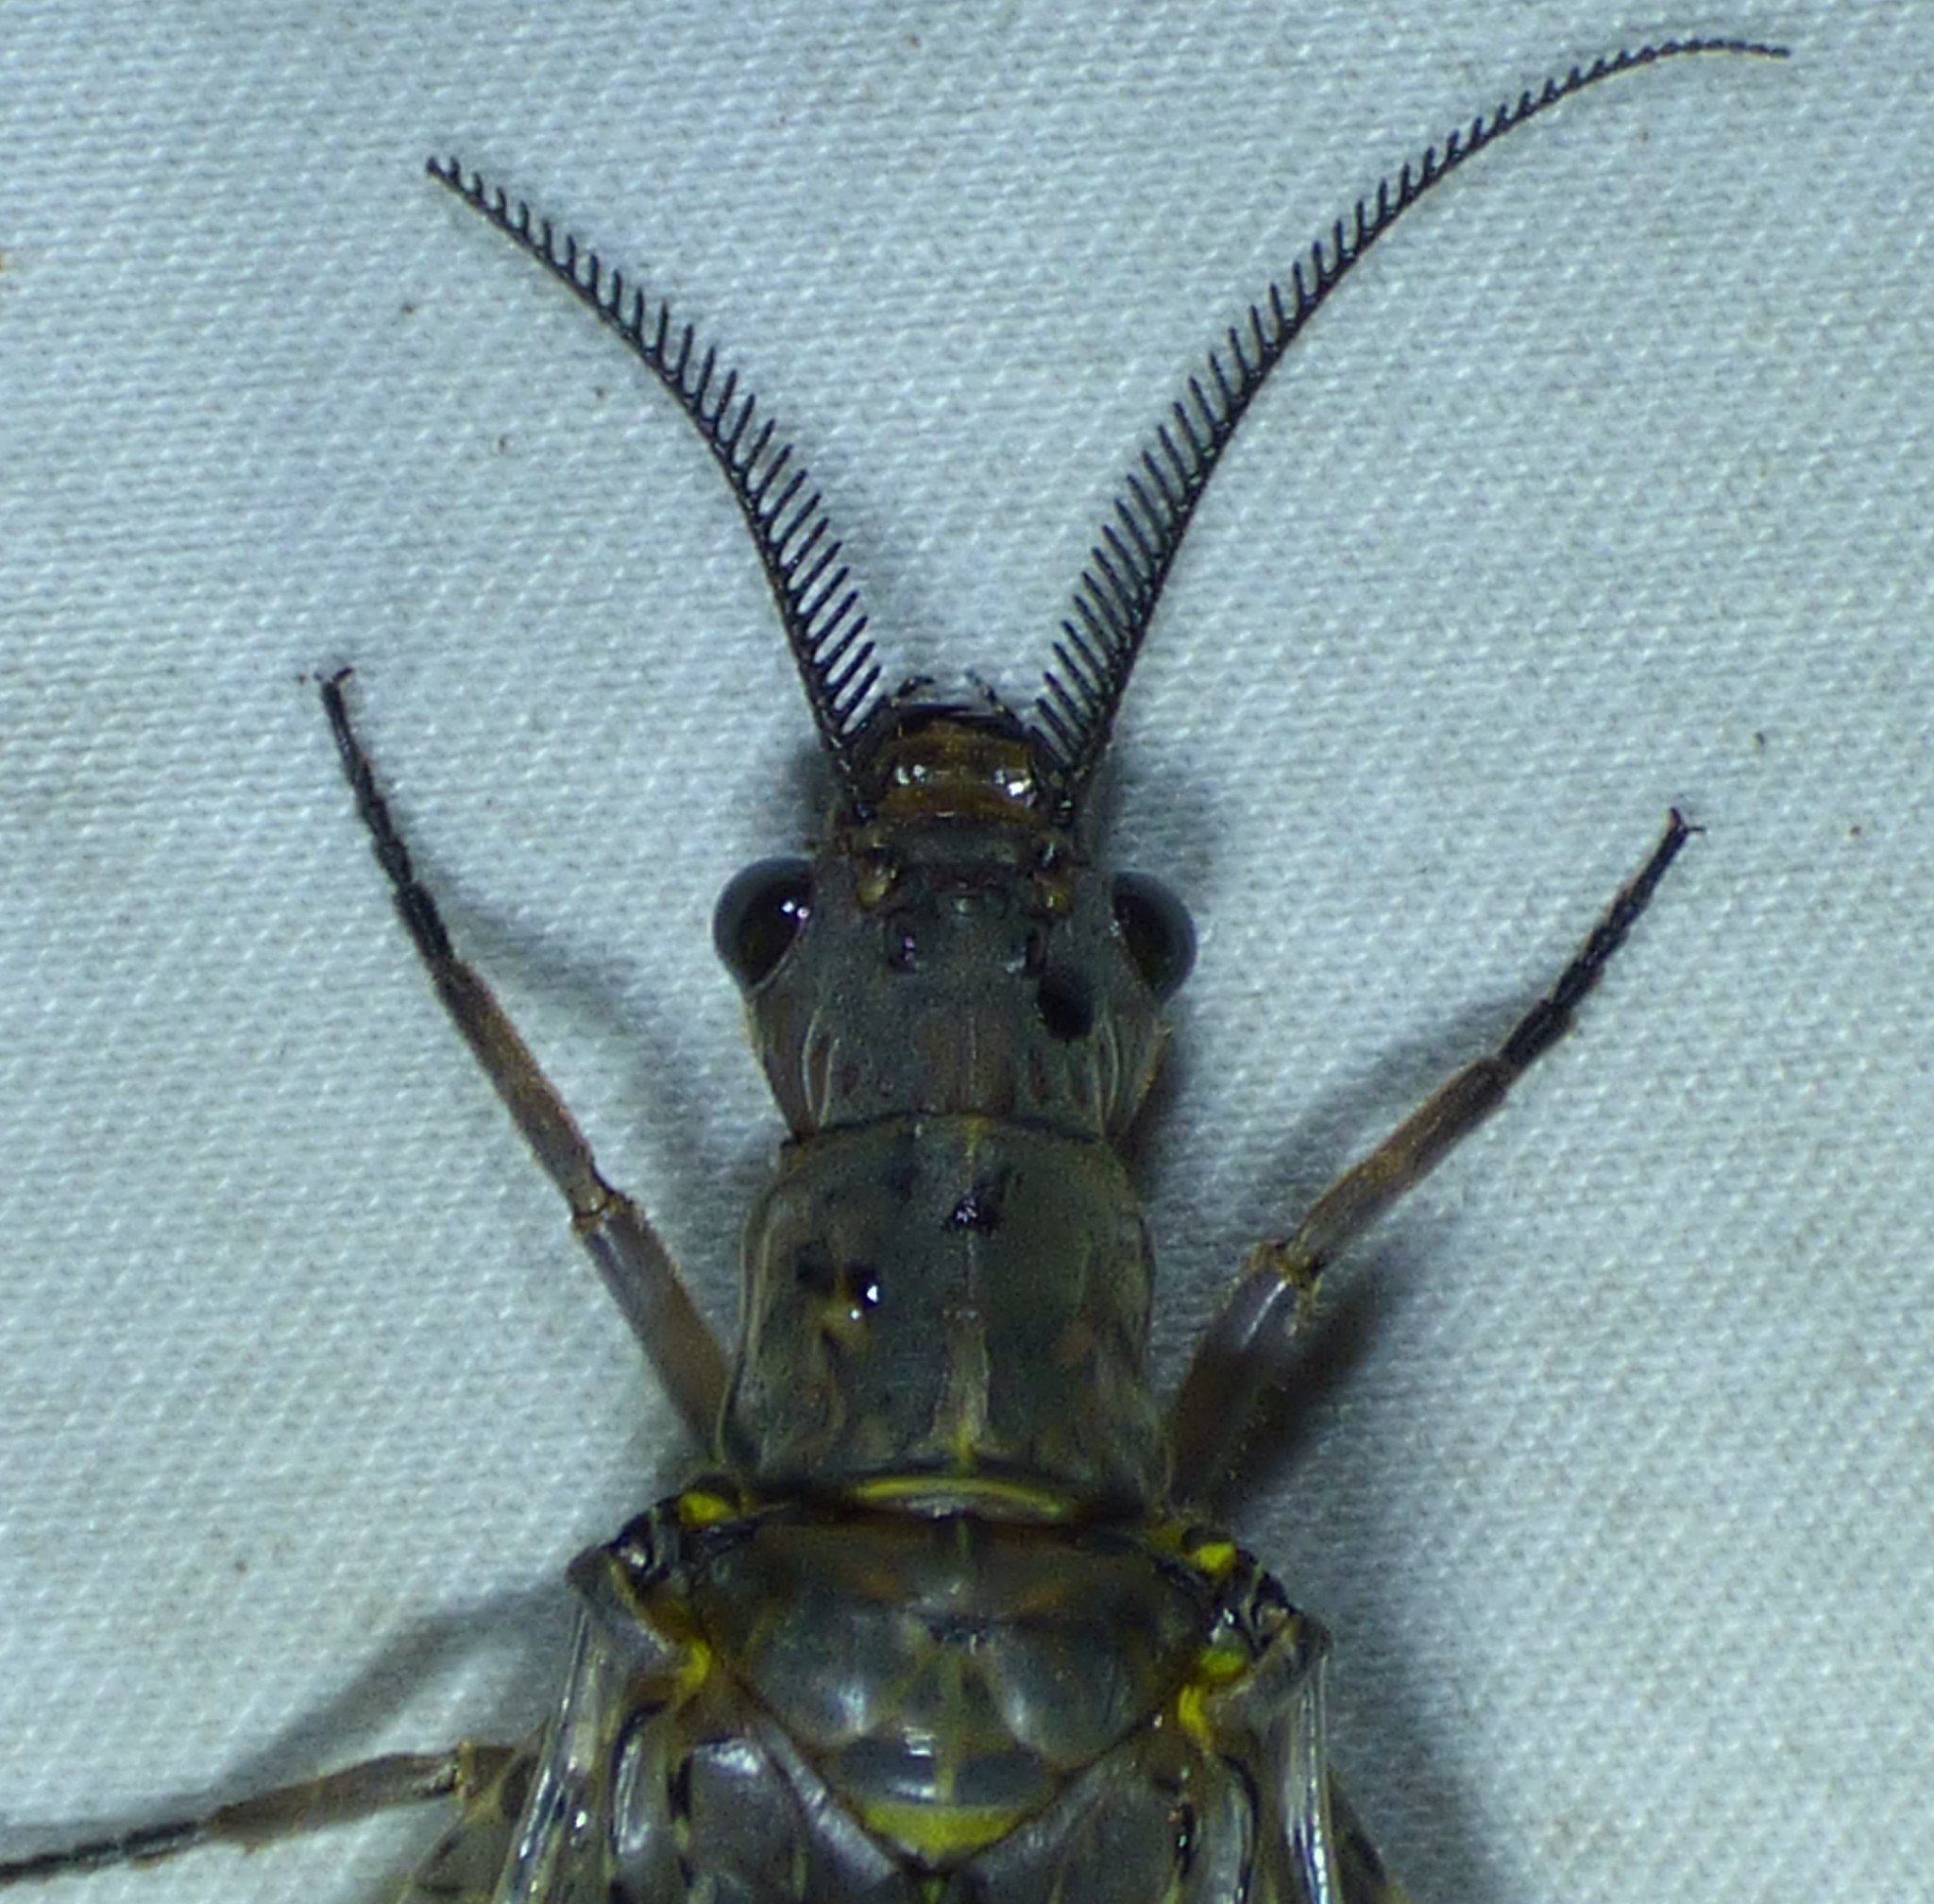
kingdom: Animalia
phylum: Arthropoda
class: Insecta
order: Megaloptera
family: Corydalidae
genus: Chauliodes
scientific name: Chauliodes pectinicornis
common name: Summer fishfly
